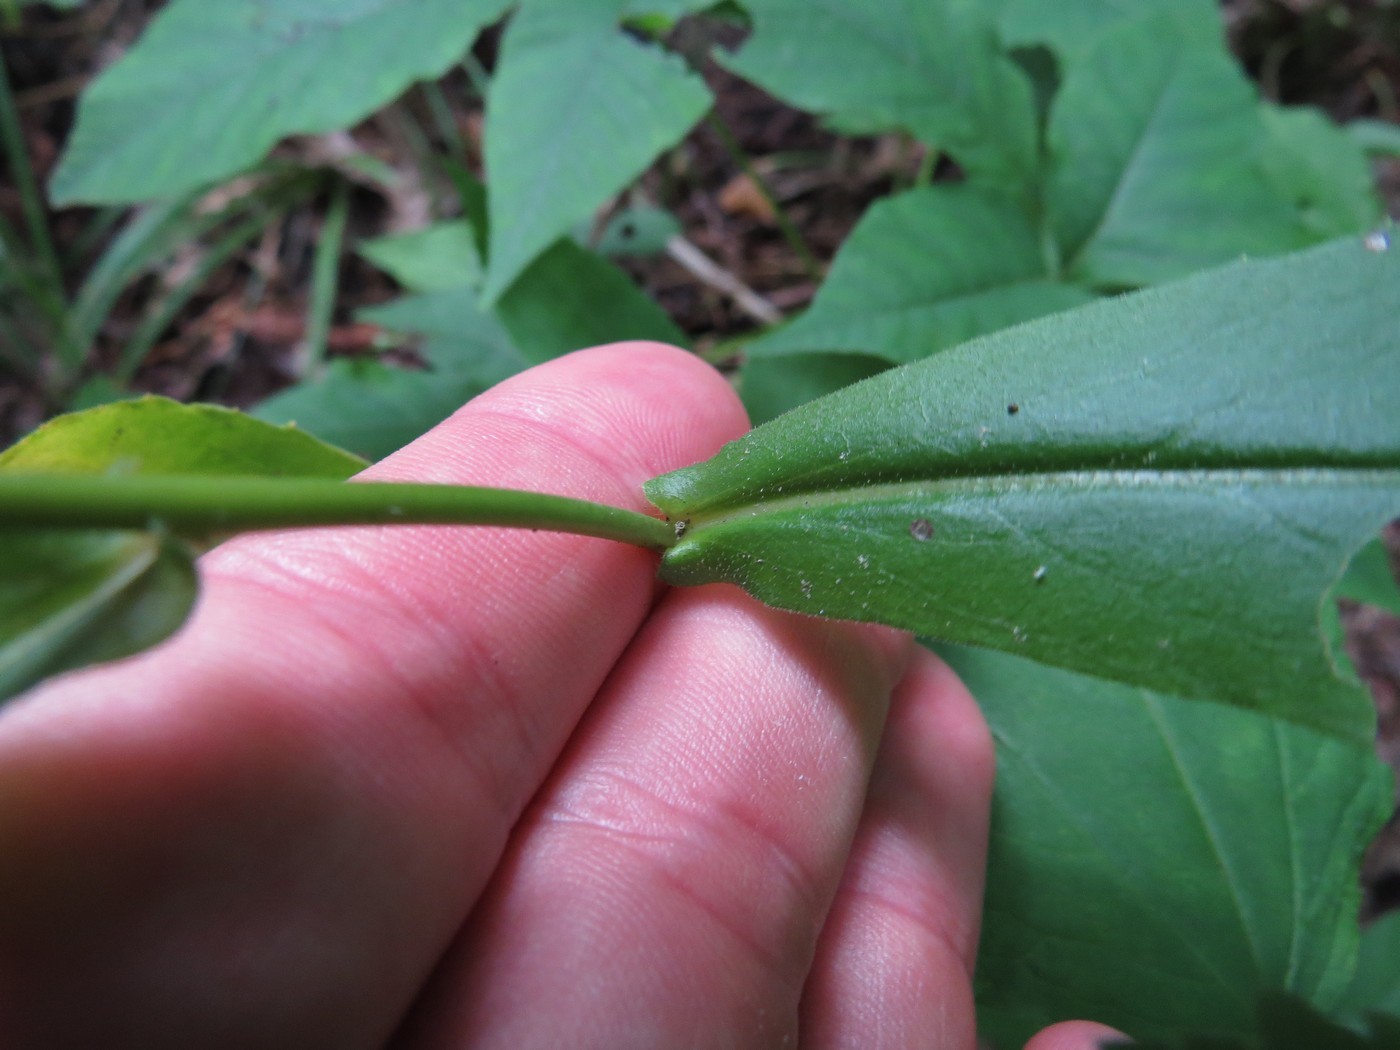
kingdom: Plantae
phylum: Tracheophyta
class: Magnoliopsida
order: Brassicales
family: Brassicaceae
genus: Borodinia
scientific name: Borodinia canadensis
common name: Sicklepod
